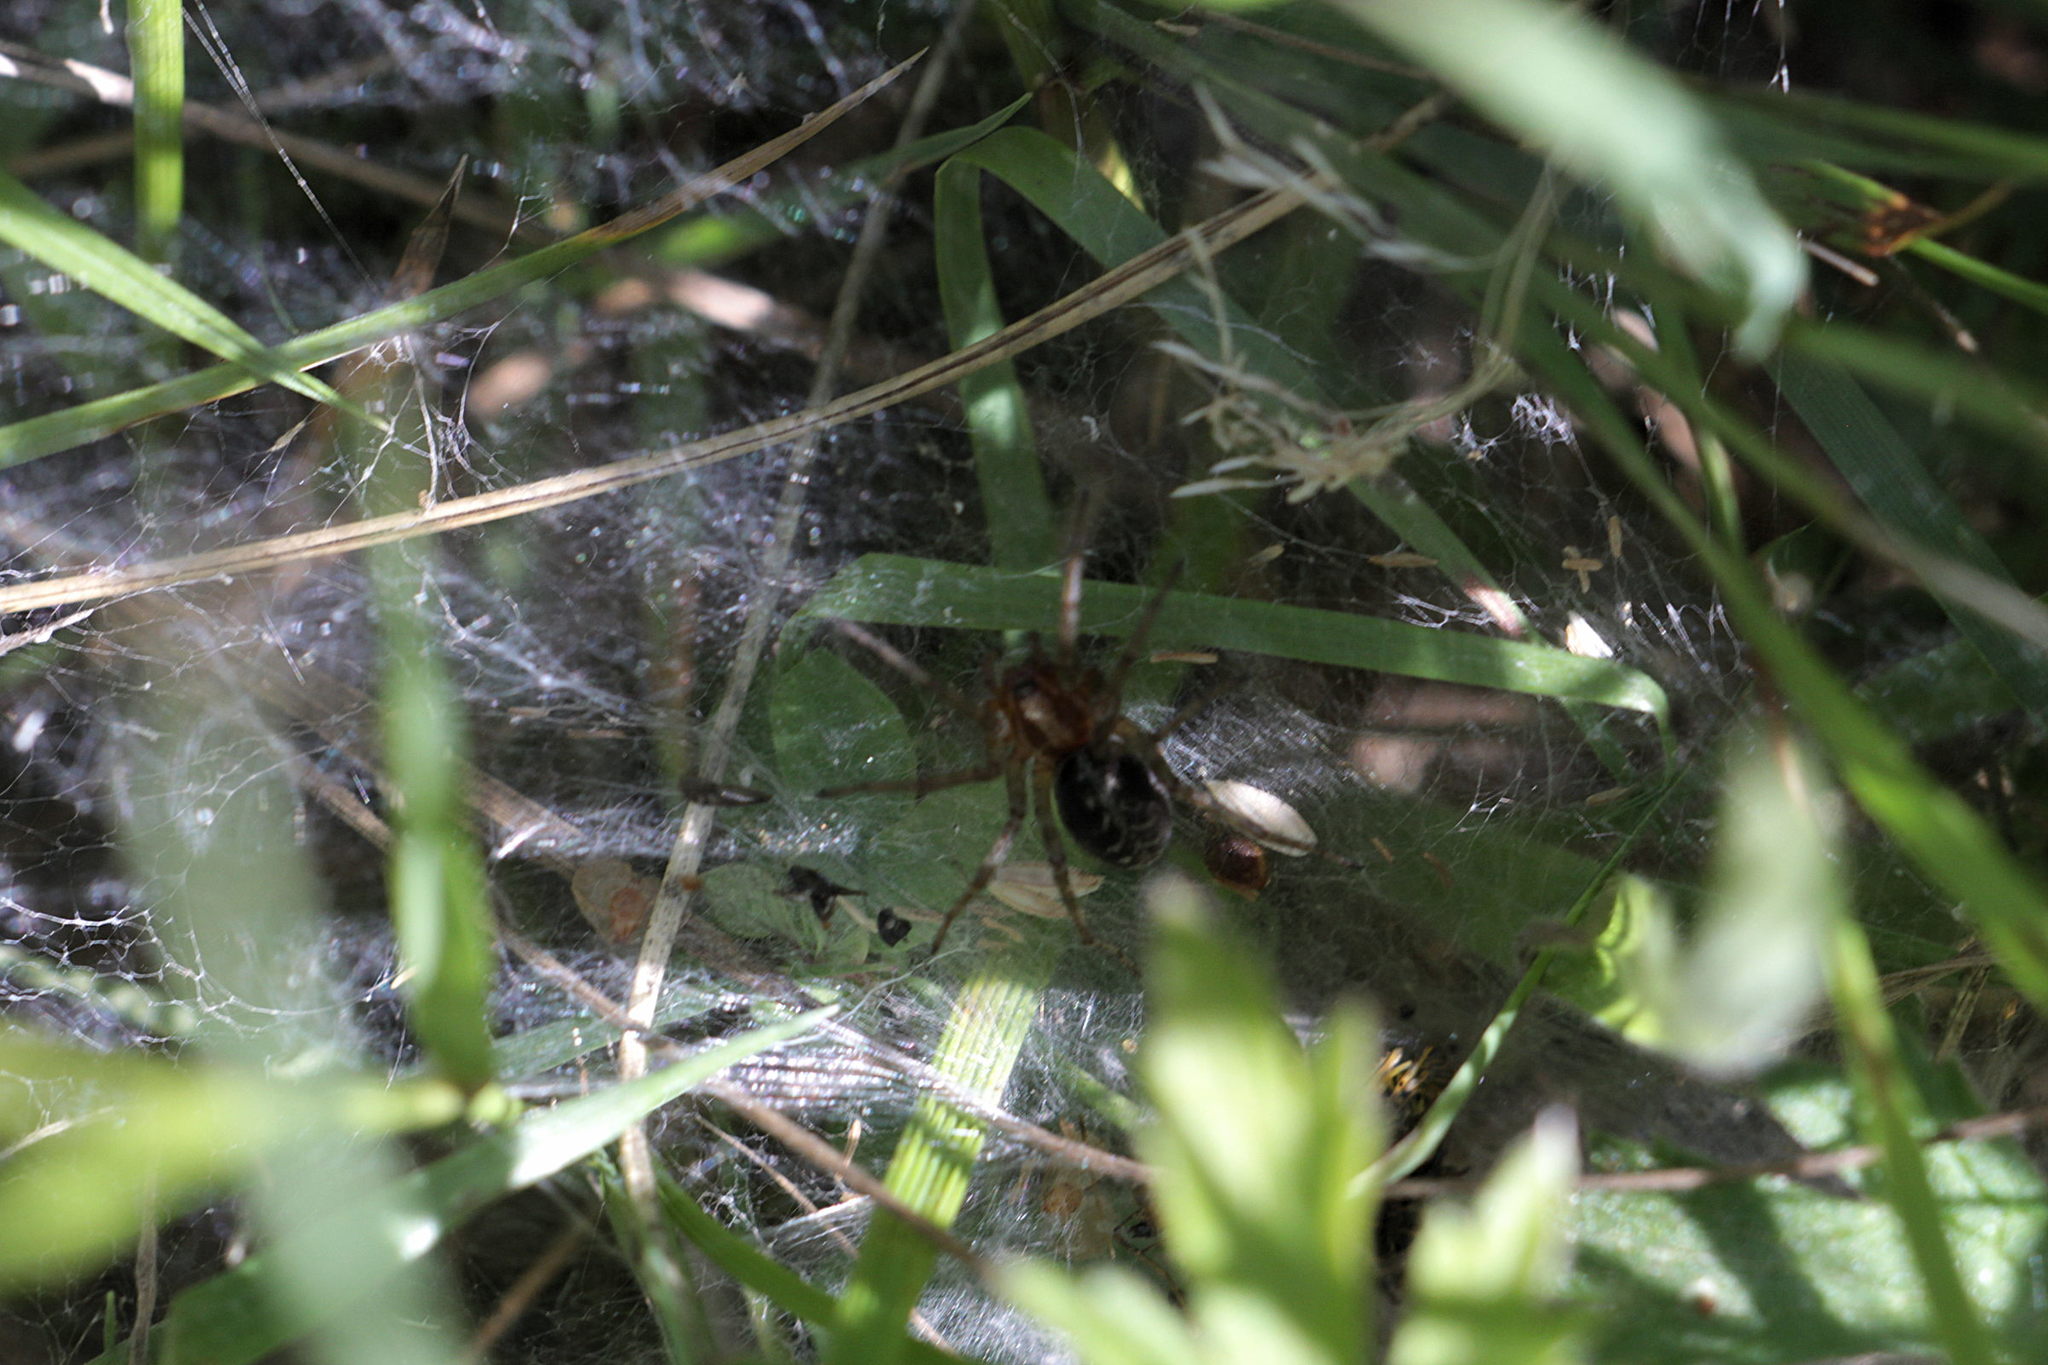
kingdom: Animalia
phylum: Arthropoda
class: Arachnida
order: Araneae
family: Agelenidae
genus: Agelena
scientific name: Agelena labyrinthica
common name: Labyrinth spider
